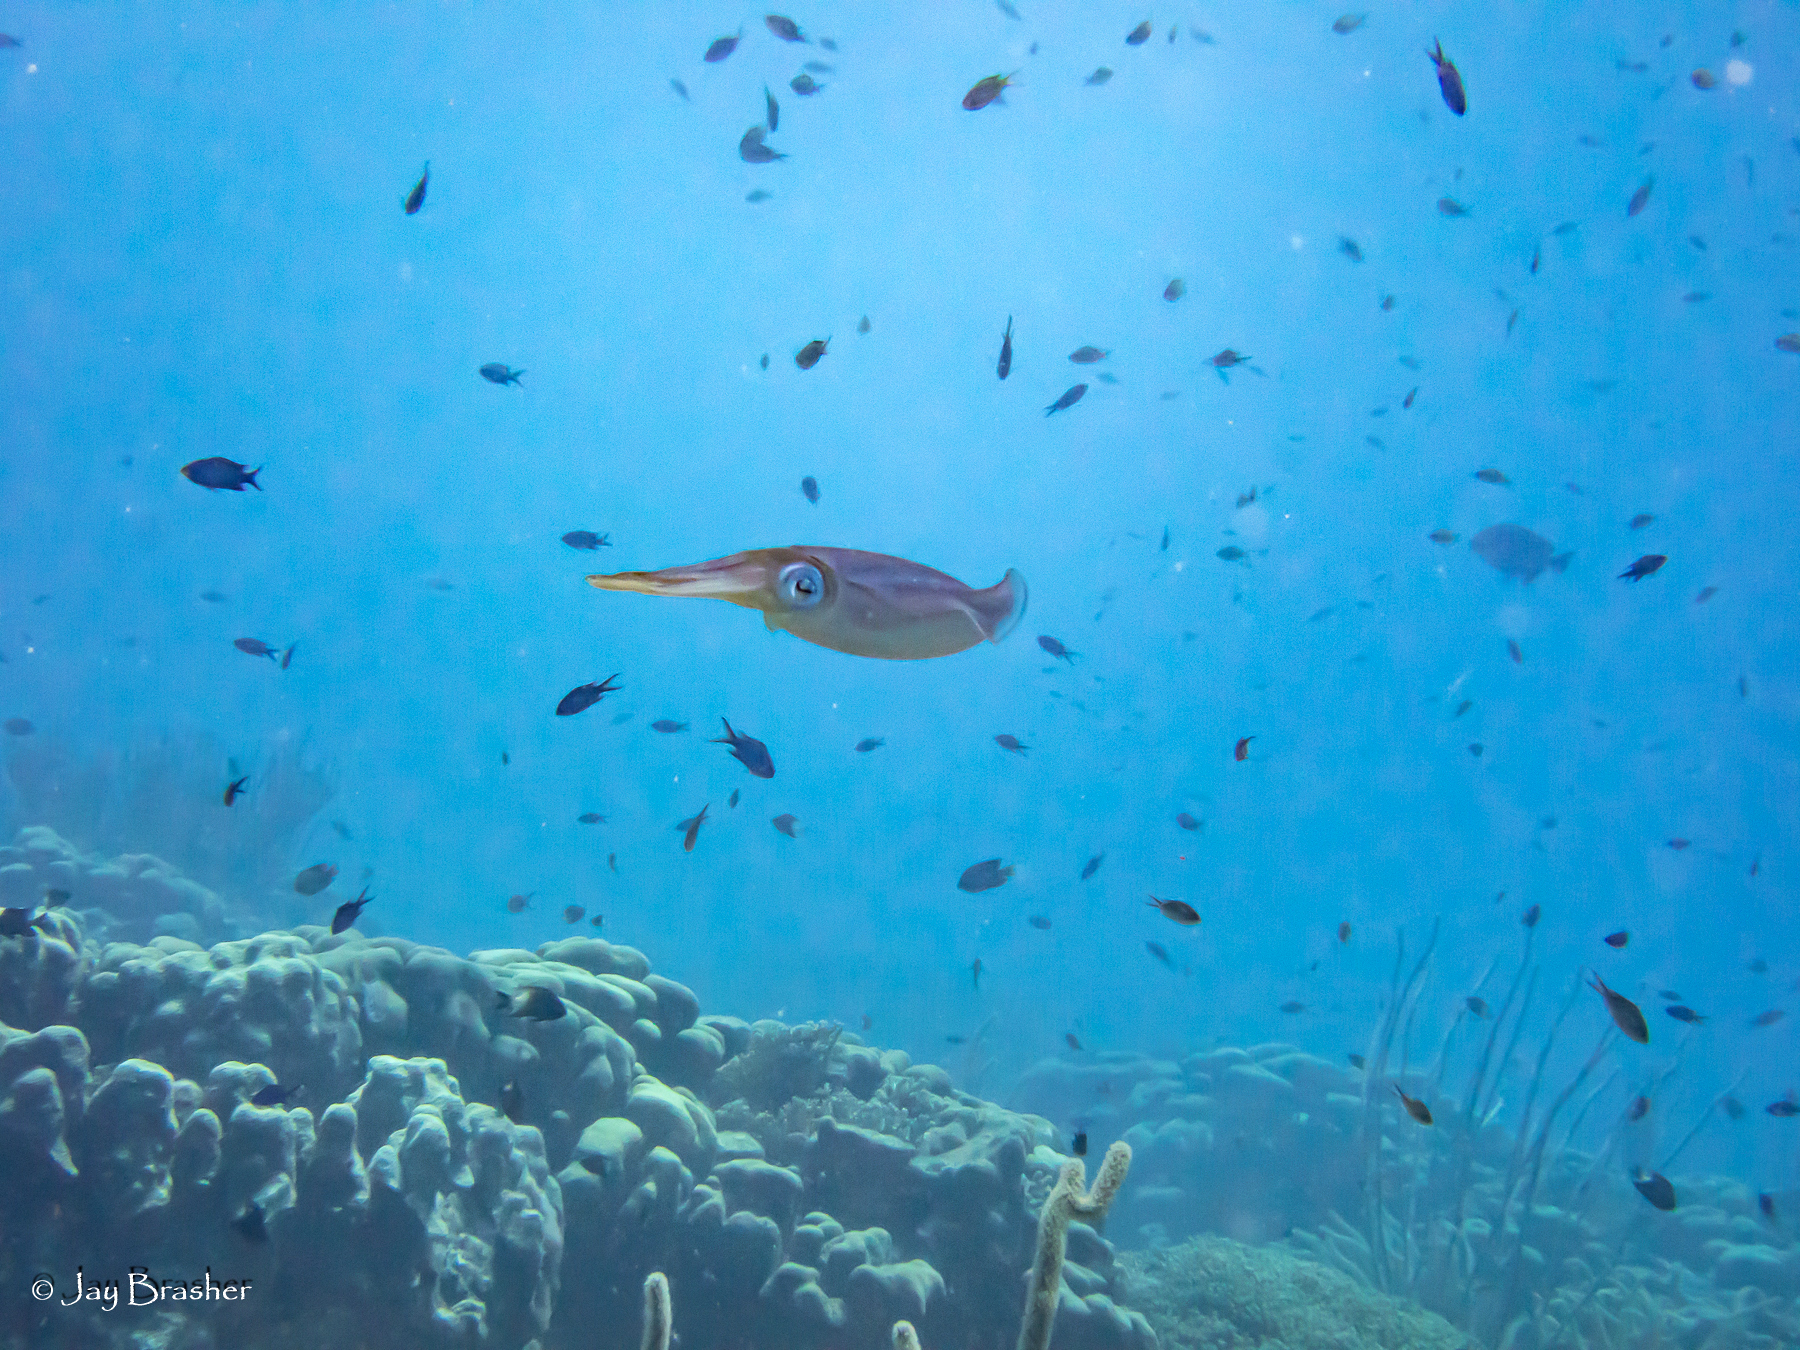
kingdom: Animalia
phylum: Mollusca
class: Cephalopoda
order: Myopsida
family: Loliginidae
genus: Sepioteuthis
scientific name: Sepioteuthis sepioidea
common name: Caribbean reef squid
